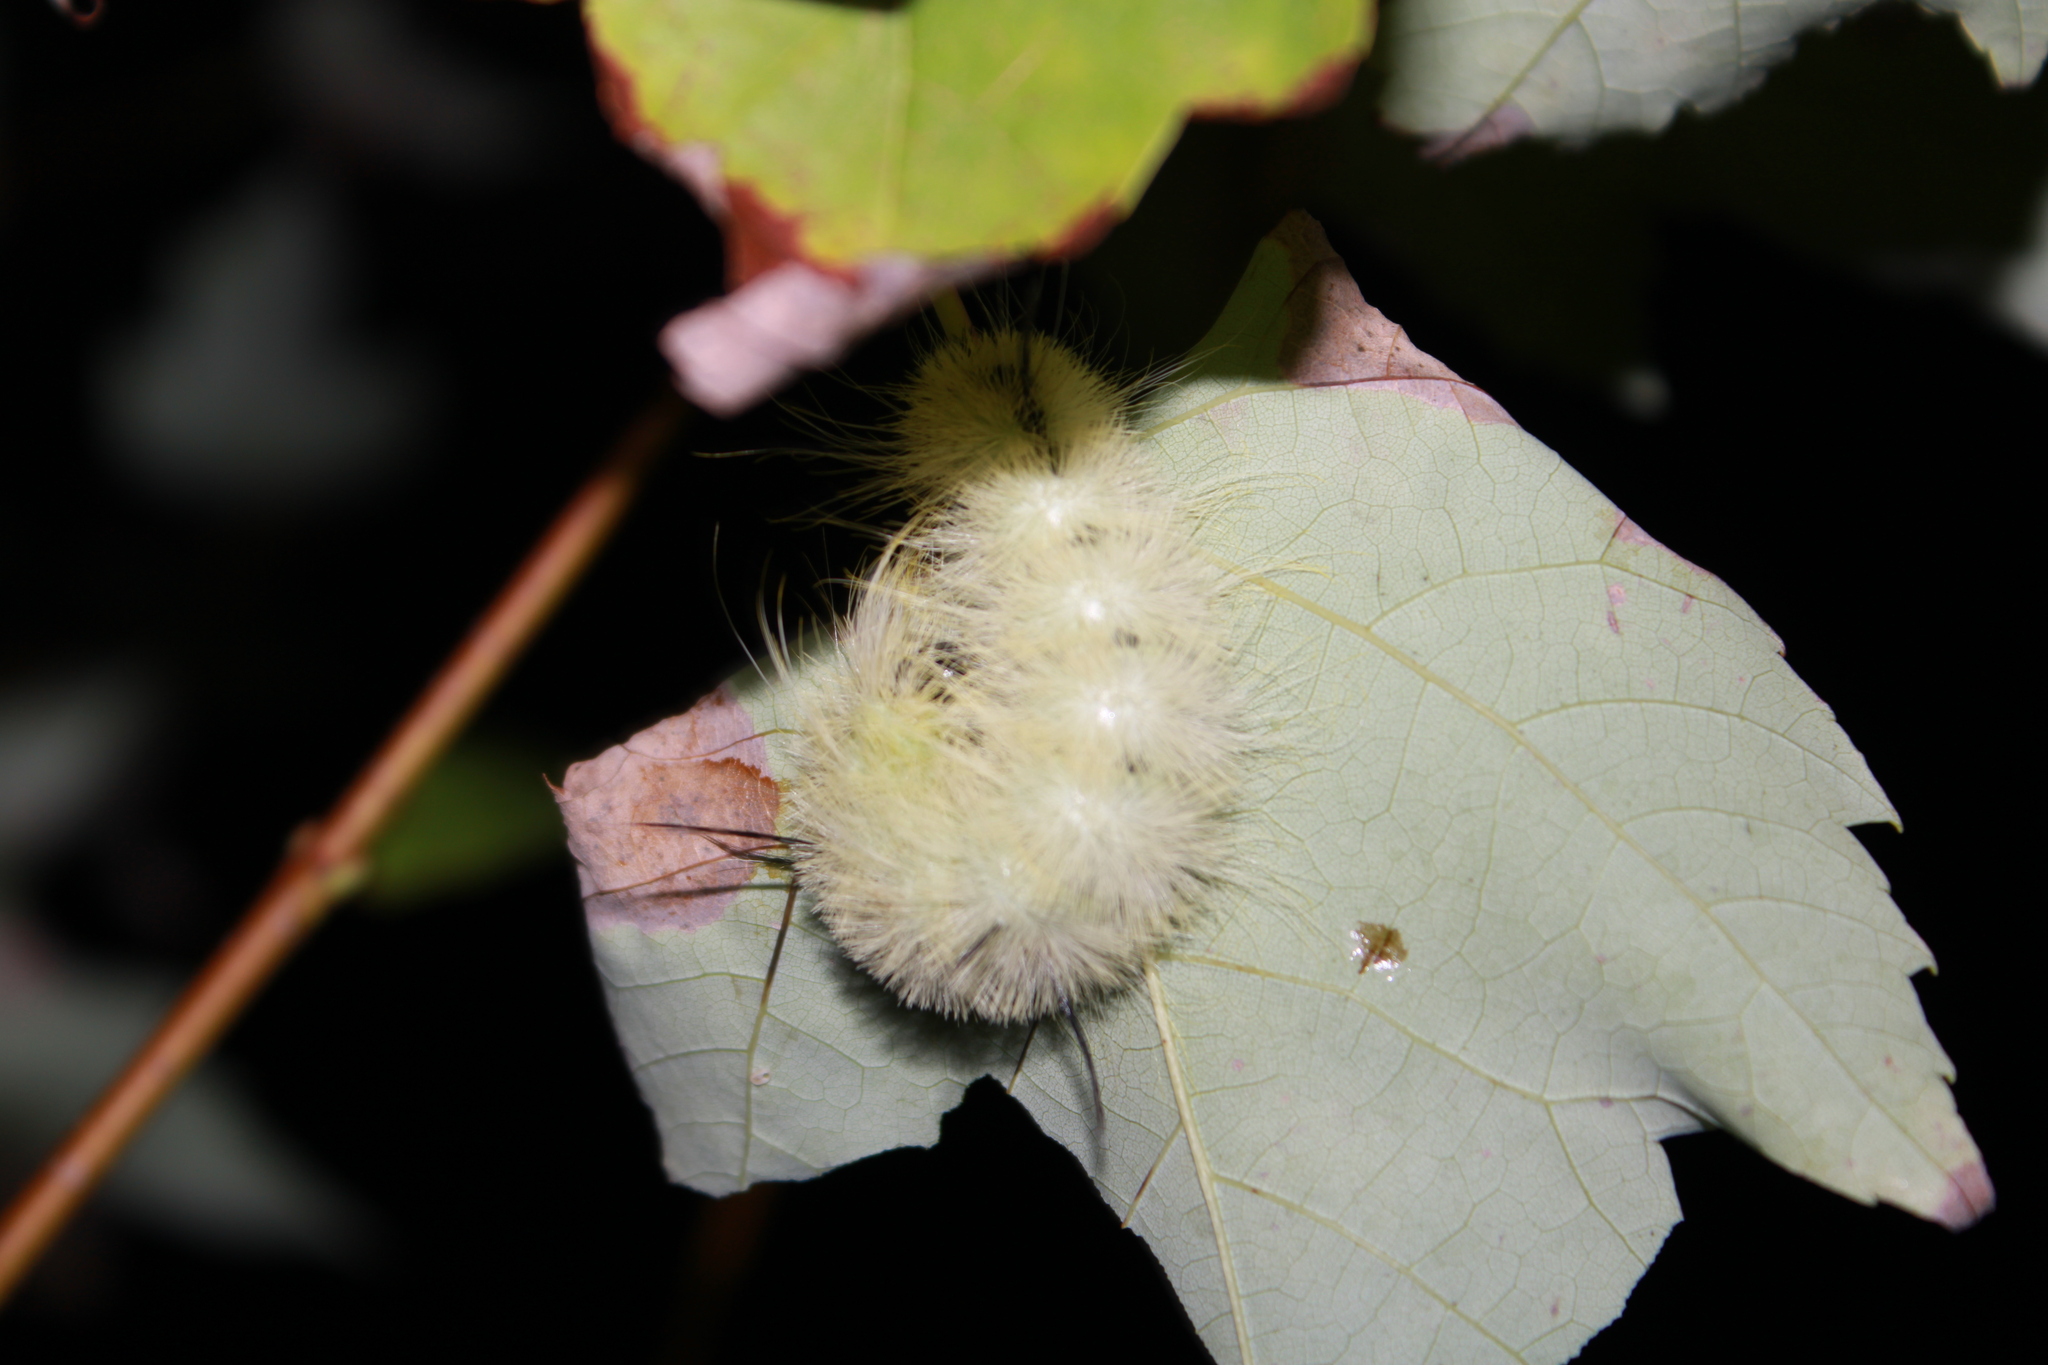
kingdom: Animalia
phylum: Arthropoda
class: Insecta
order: Lepidoptera
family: Noctuidae
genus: Acronicta
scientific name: Acronicta americana
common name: American dagger
